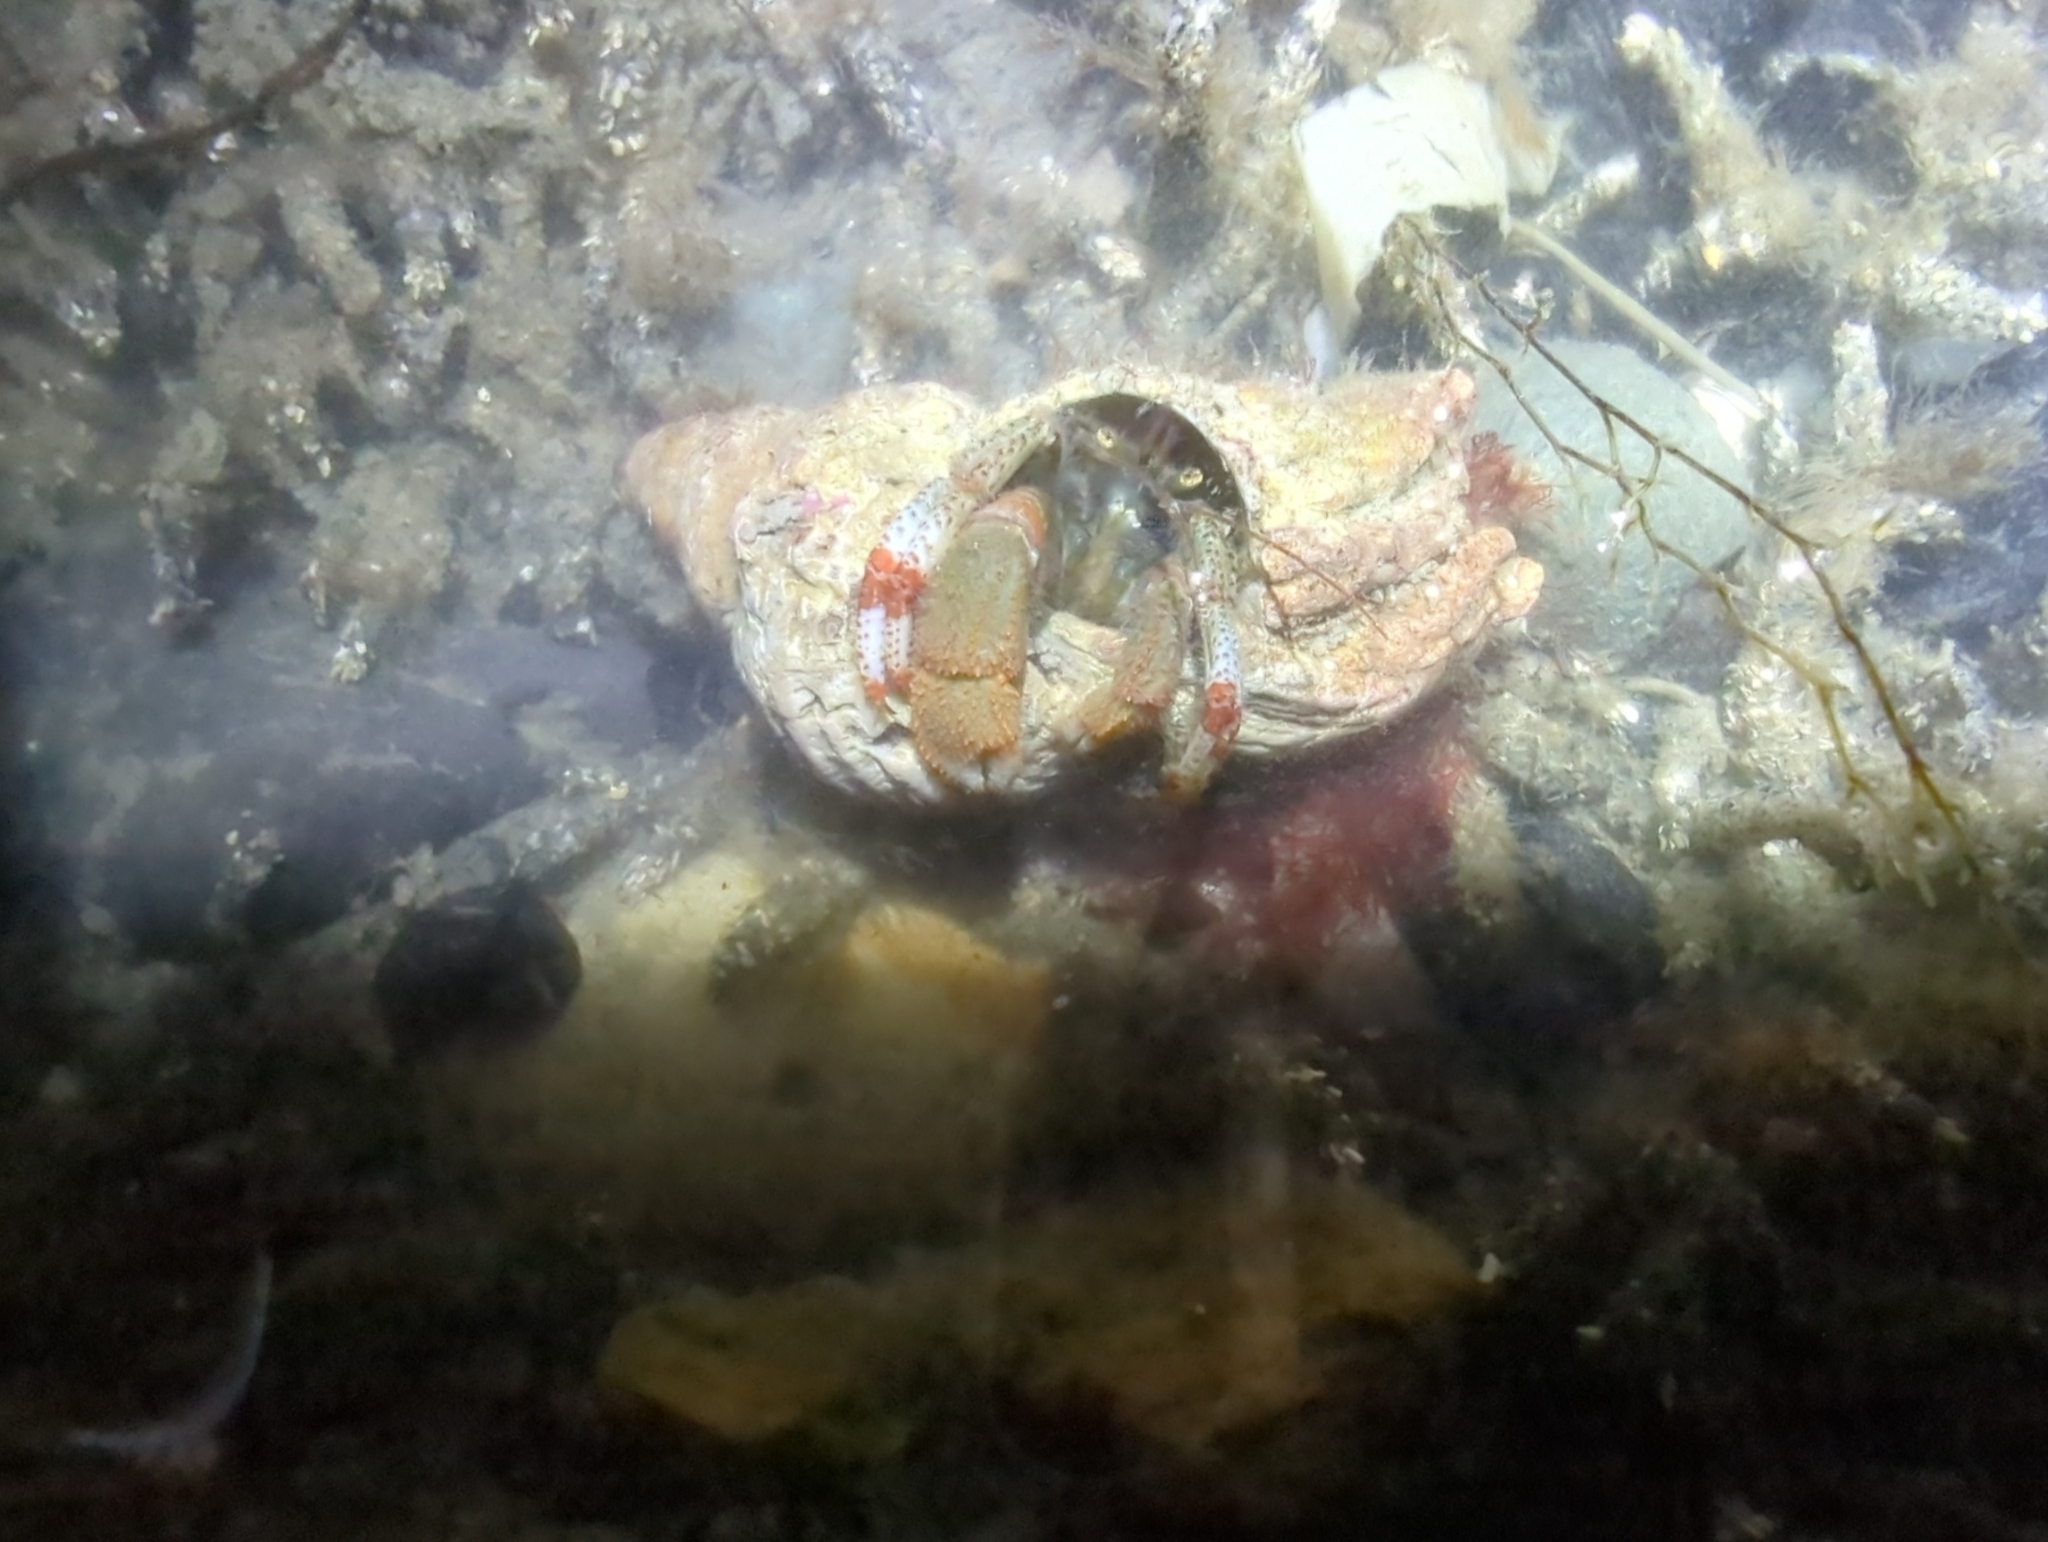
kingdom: Animalia
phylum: Arthropoda
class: Malacostraca
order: Decapoda
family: Paguridae
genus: Pagurus
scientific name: Pagurus beringanus
